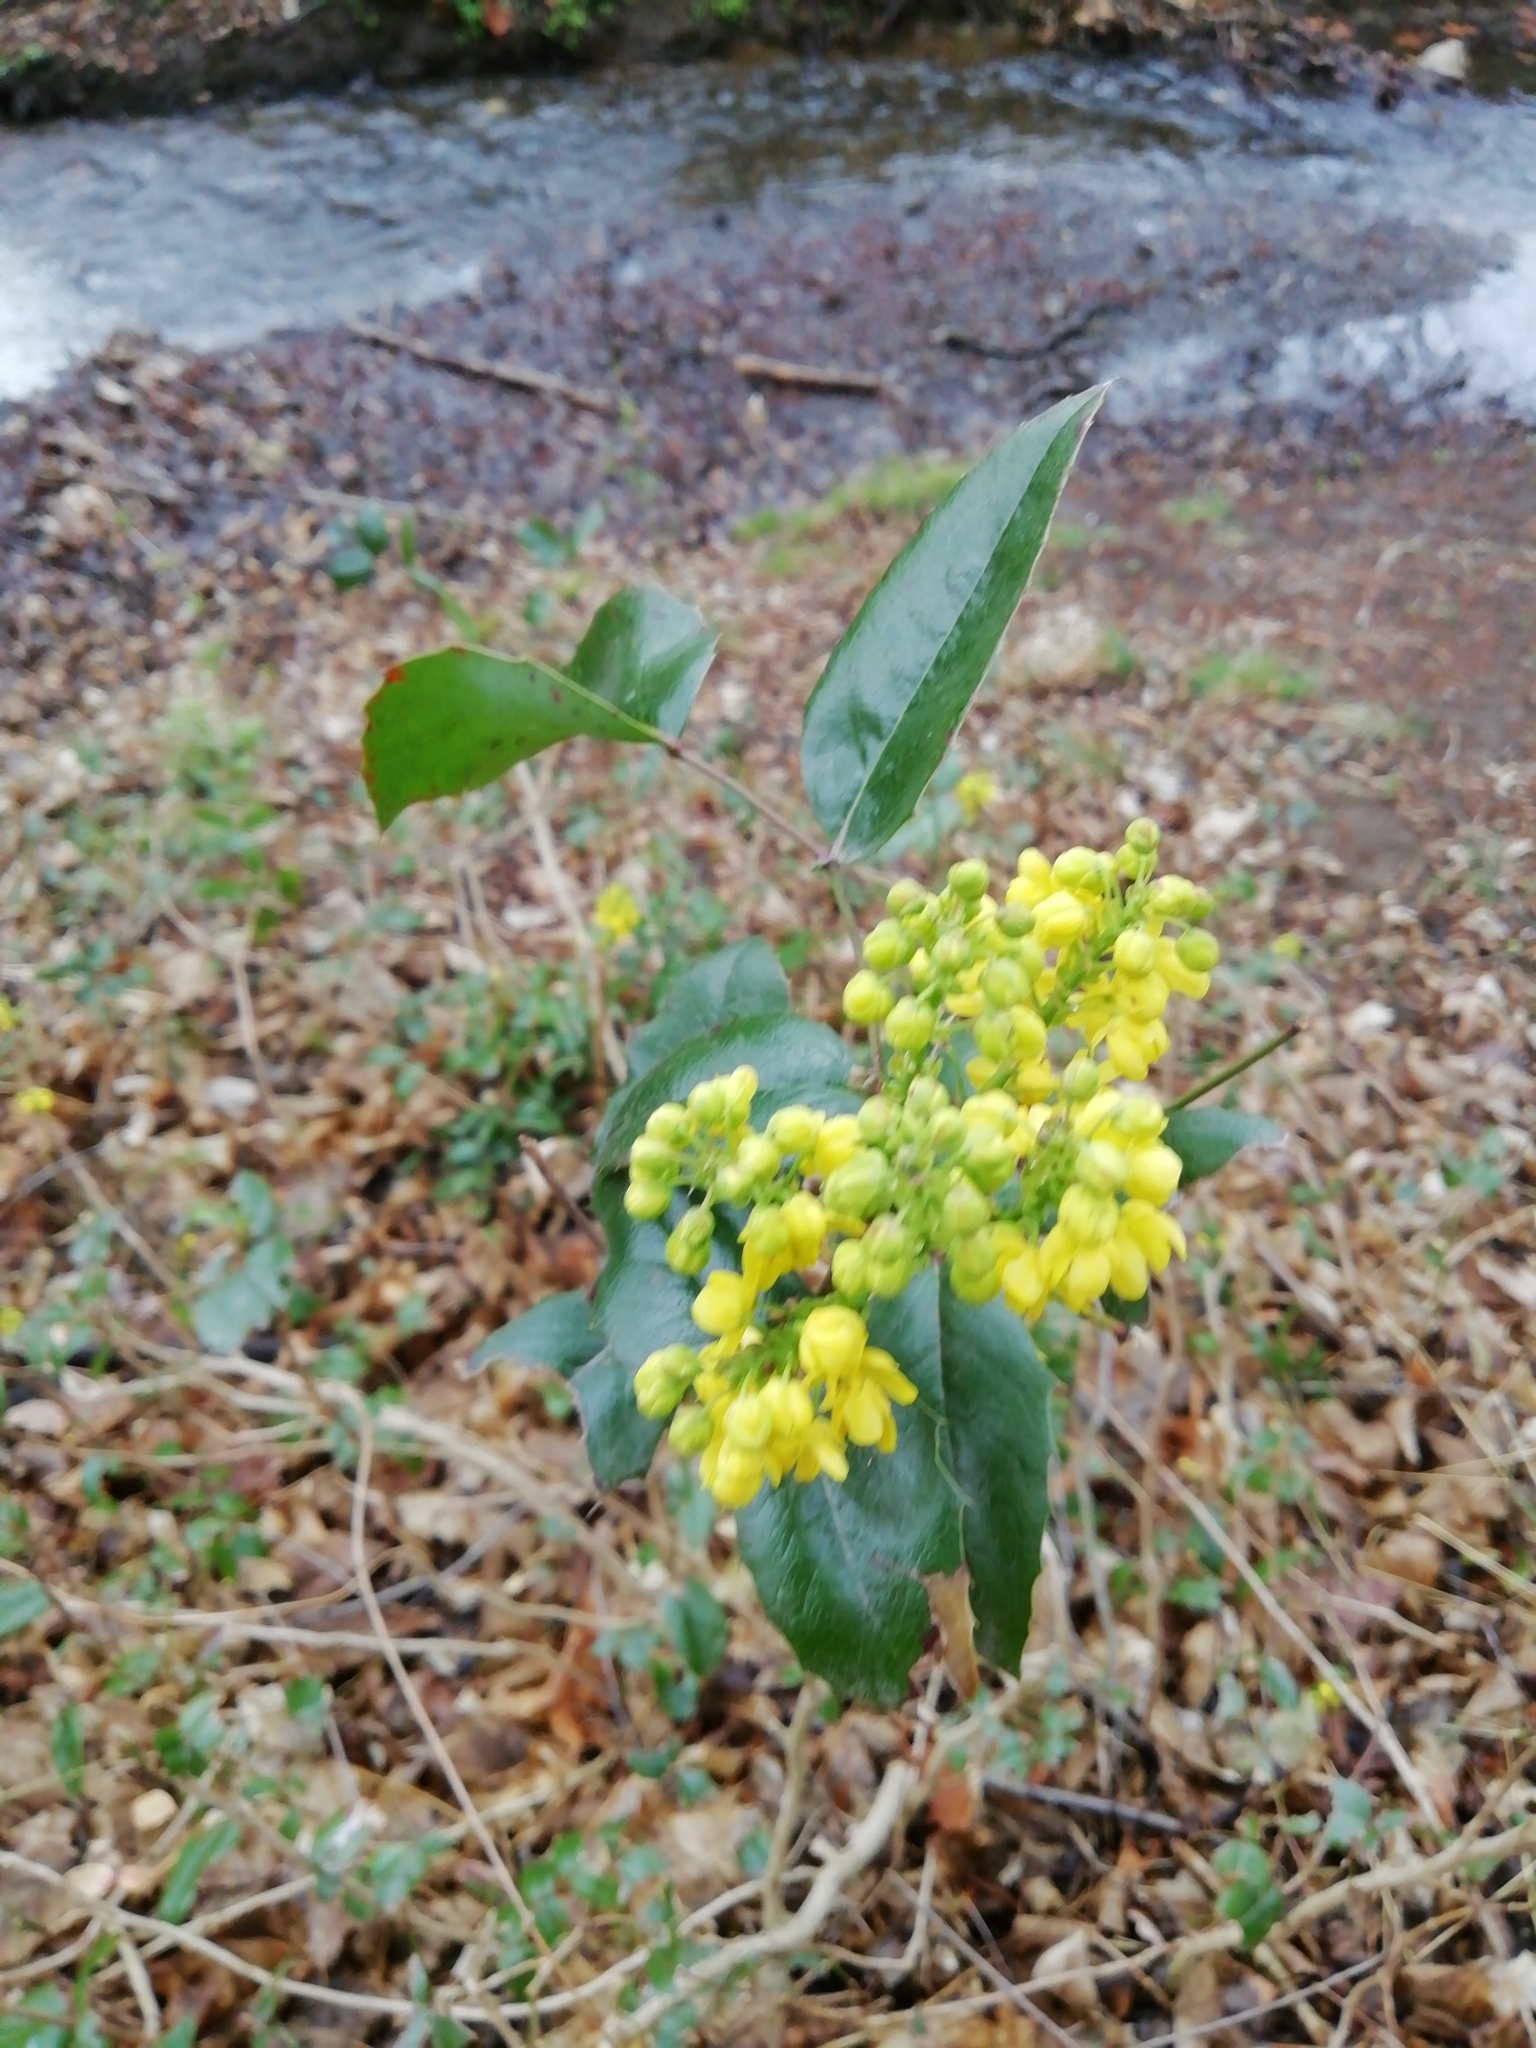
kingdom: Plantae
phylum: Tracheophyta
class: Magnoliopsida
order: Ranunculales
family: Berberidaceae
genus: Mahonia
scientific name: Mahonia aquifolium
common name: Oregon-grape
